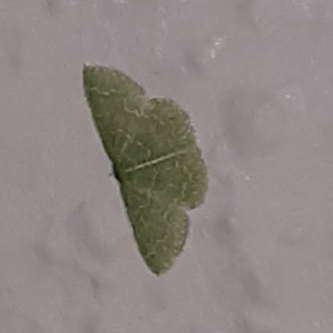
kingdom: Animalia
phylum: Arthropoda
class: Insecta
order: Lepidoptera
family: Geometridae
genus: Synchlora
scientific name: Synchlora frondaria
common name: Southern emerald
